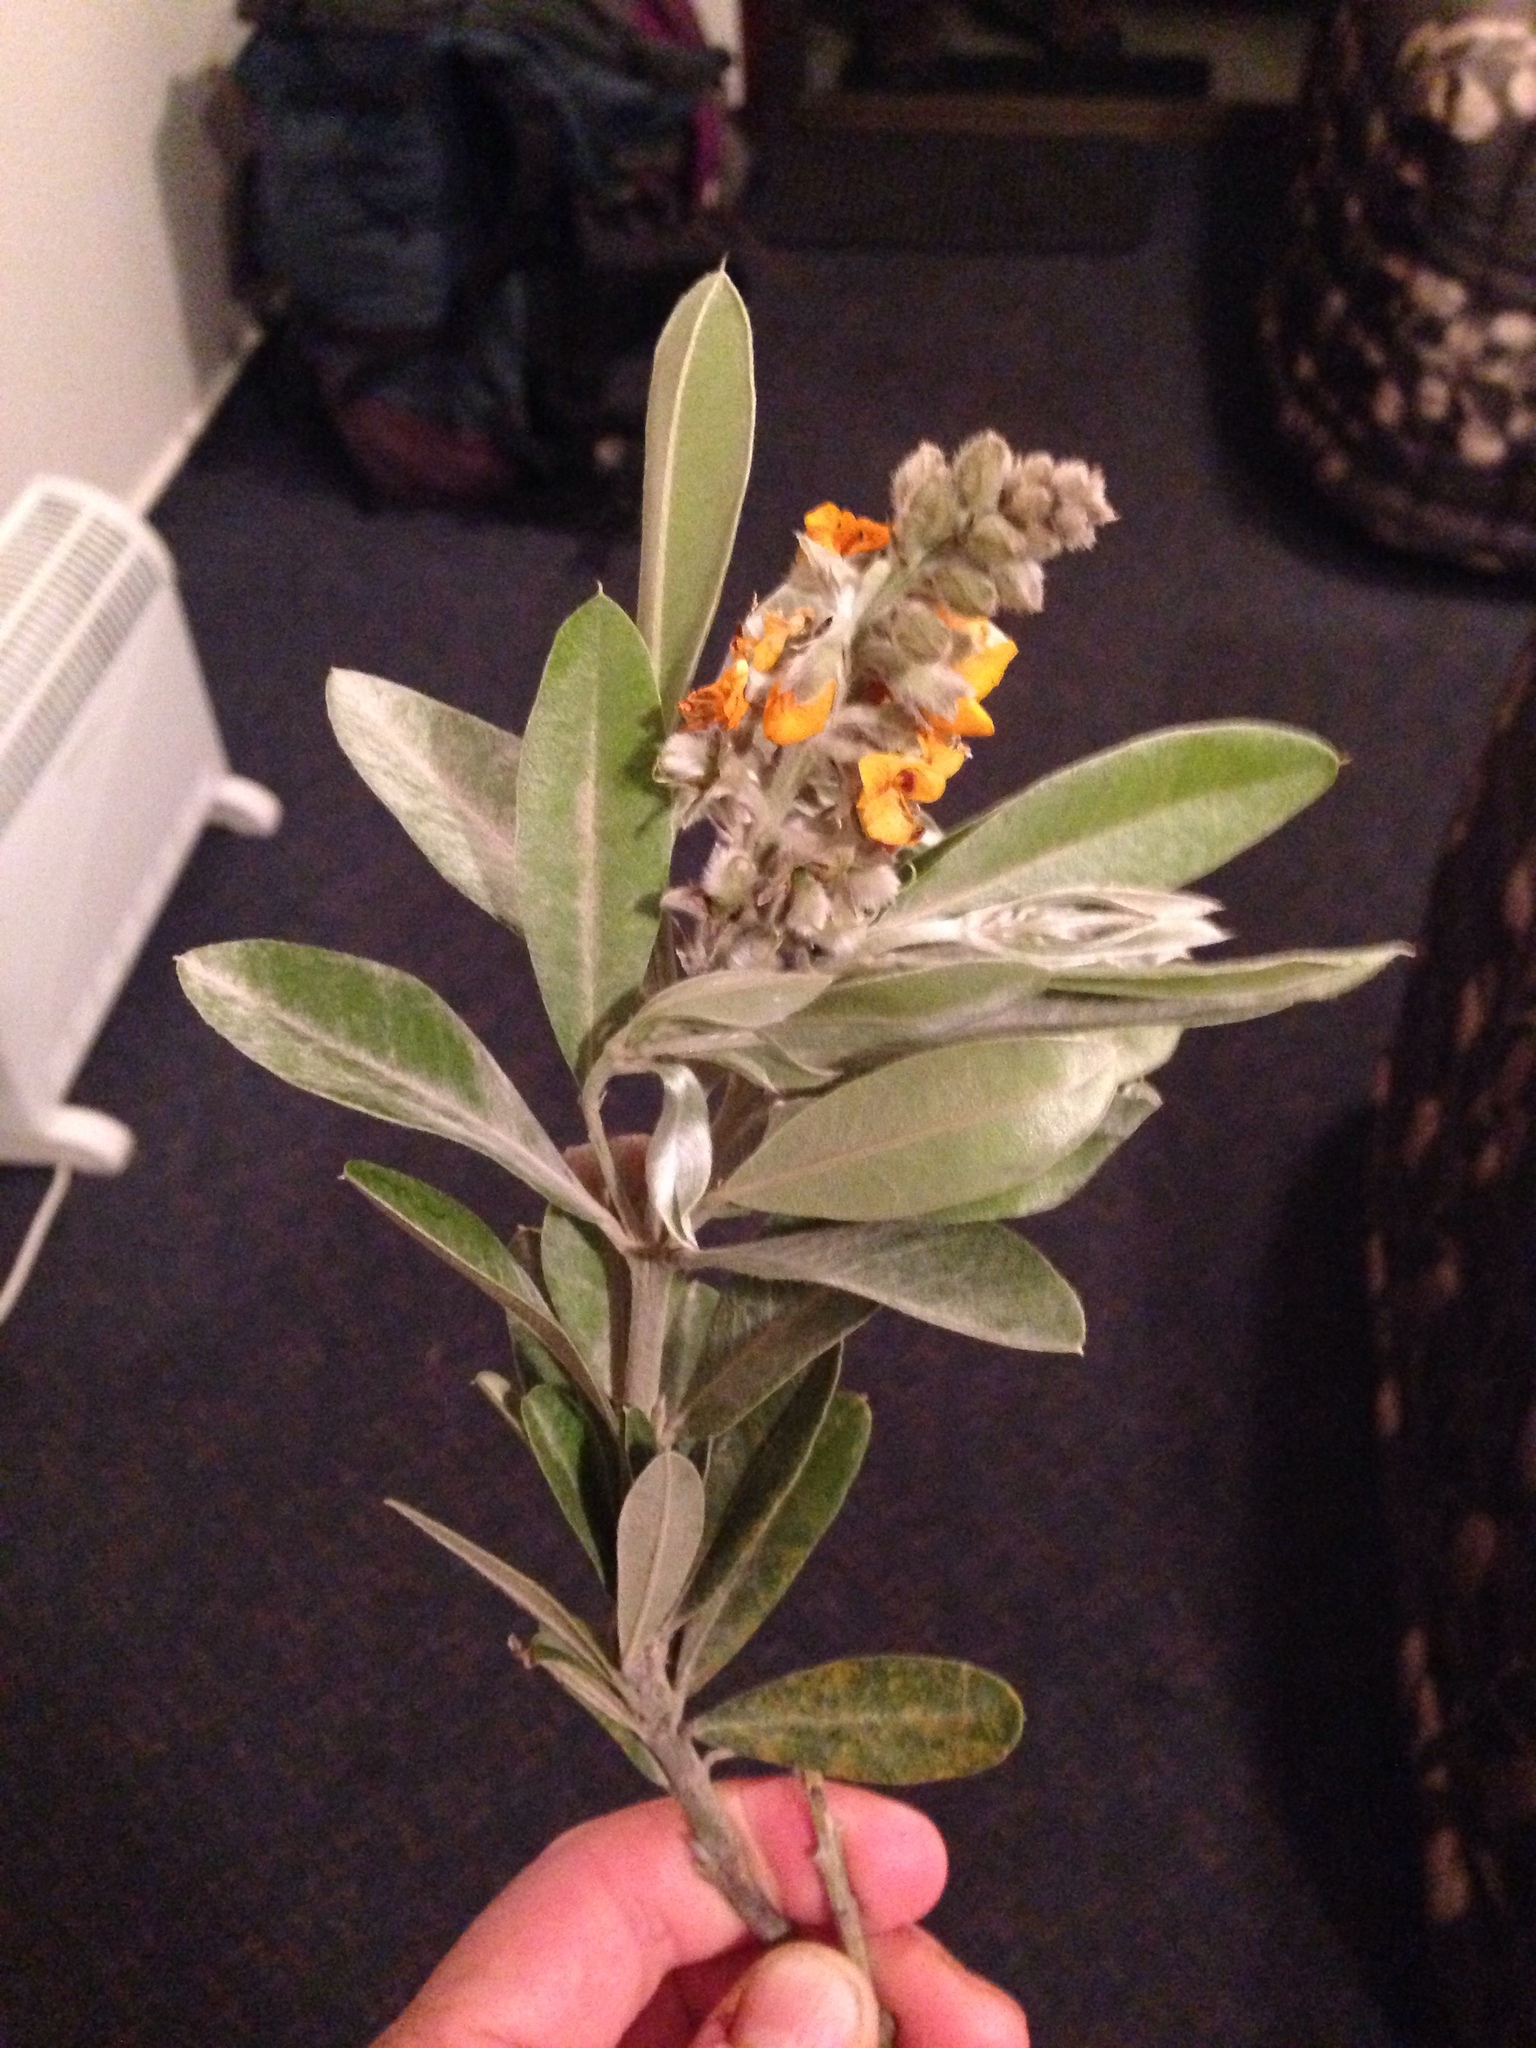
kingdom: Plantae
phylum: Tracheophyta
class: Magnoliopsida
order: Fabales
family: Fabaceae
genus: Callistachys
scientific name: Callistachys lanceolata
